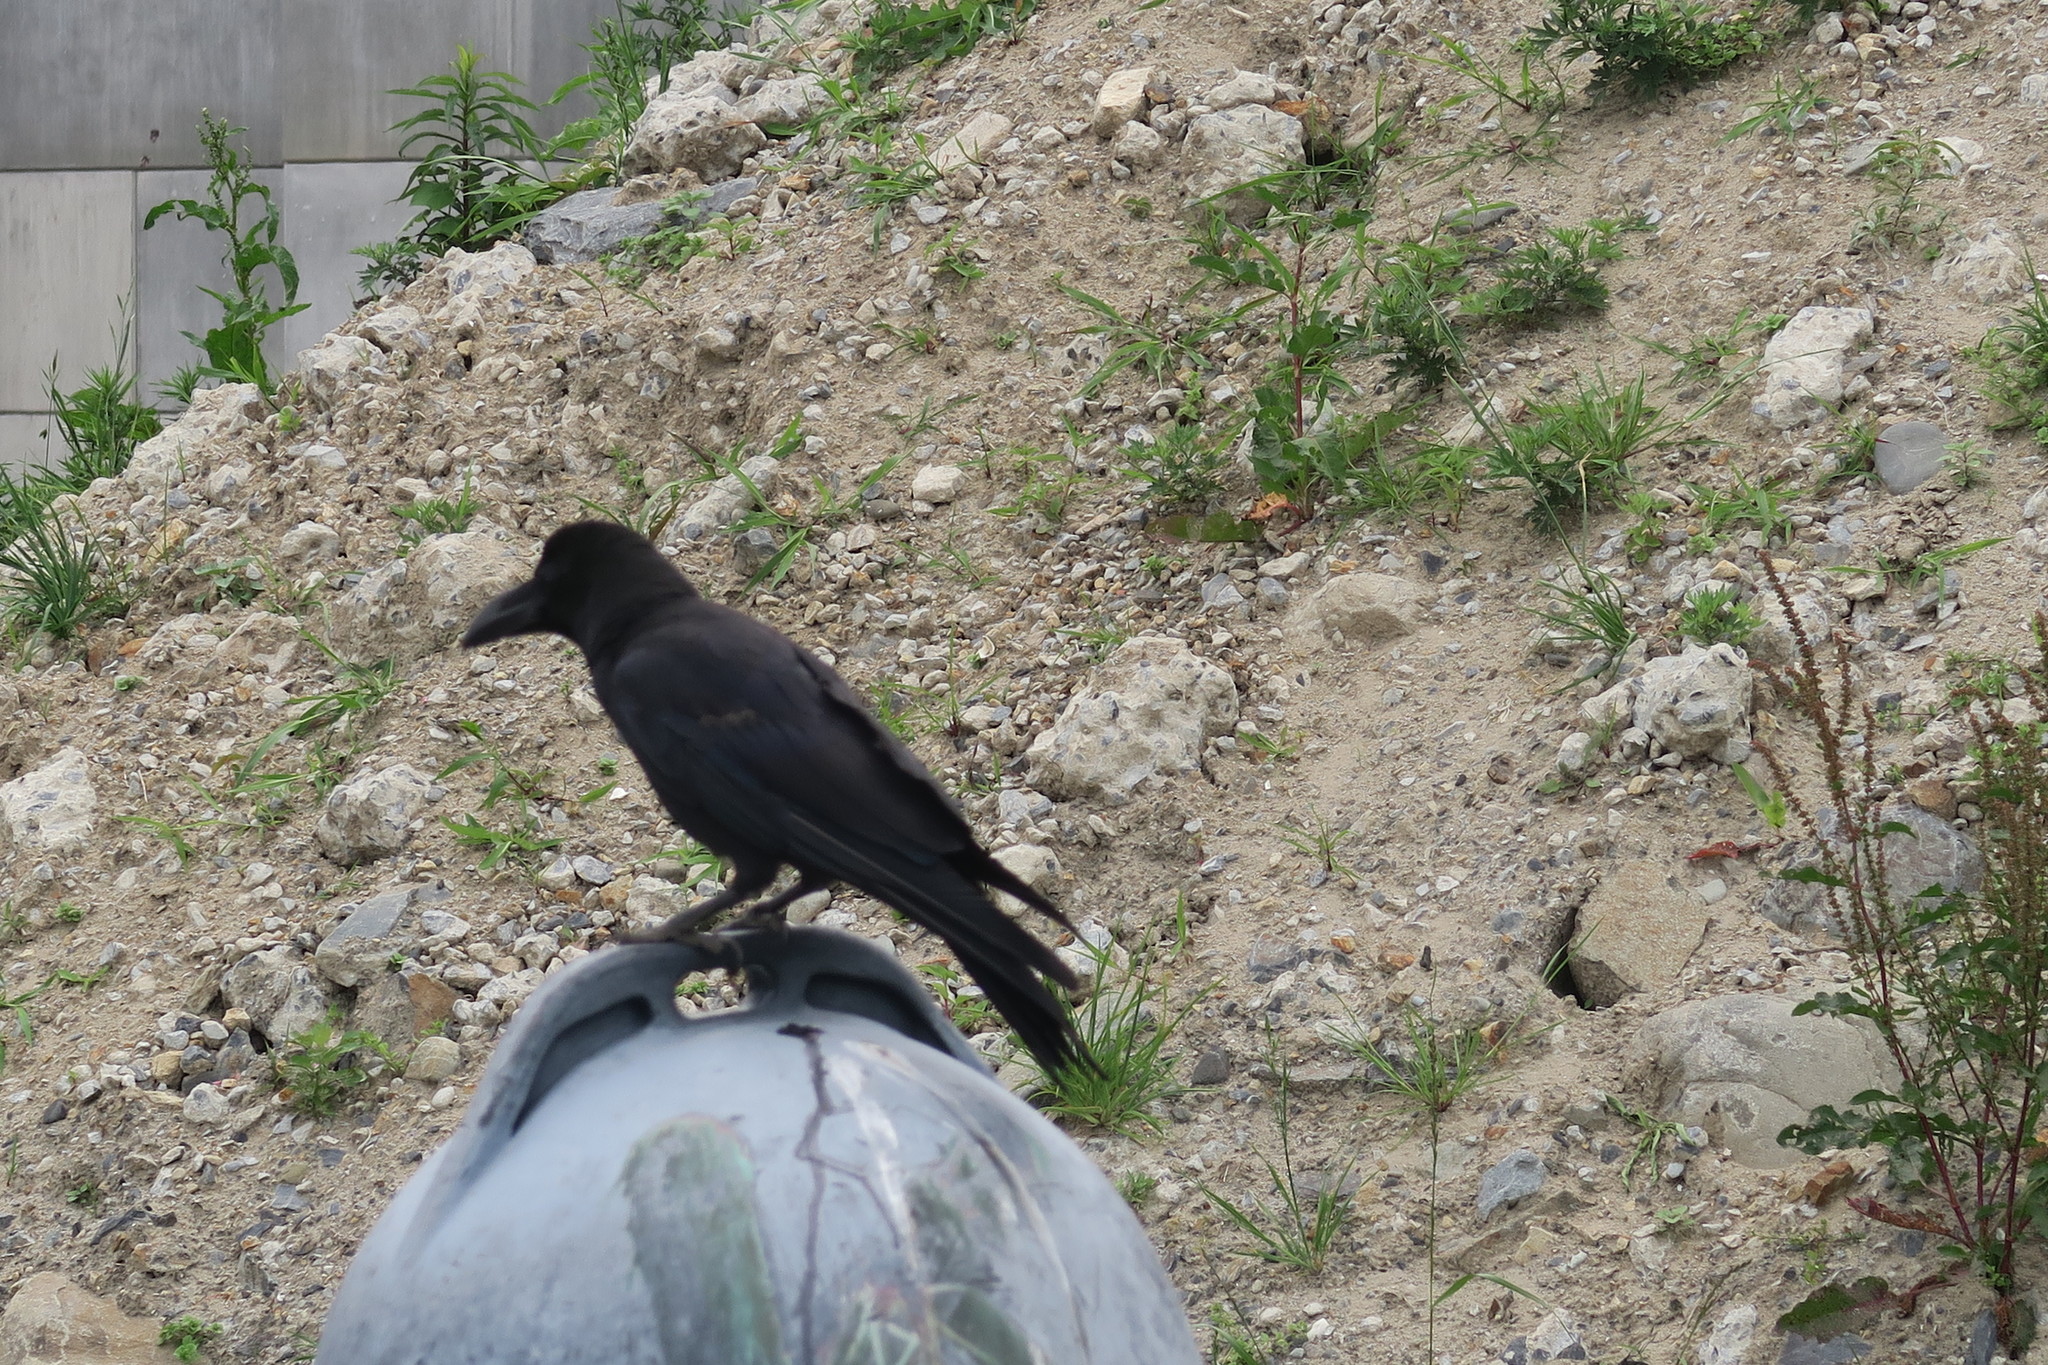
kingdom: Animalia
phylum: Chordata
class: Aves
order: Passeriformes
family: Corvidae
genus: Corvus
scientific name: Corvus macrorhynchos
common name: Large-billed crow
